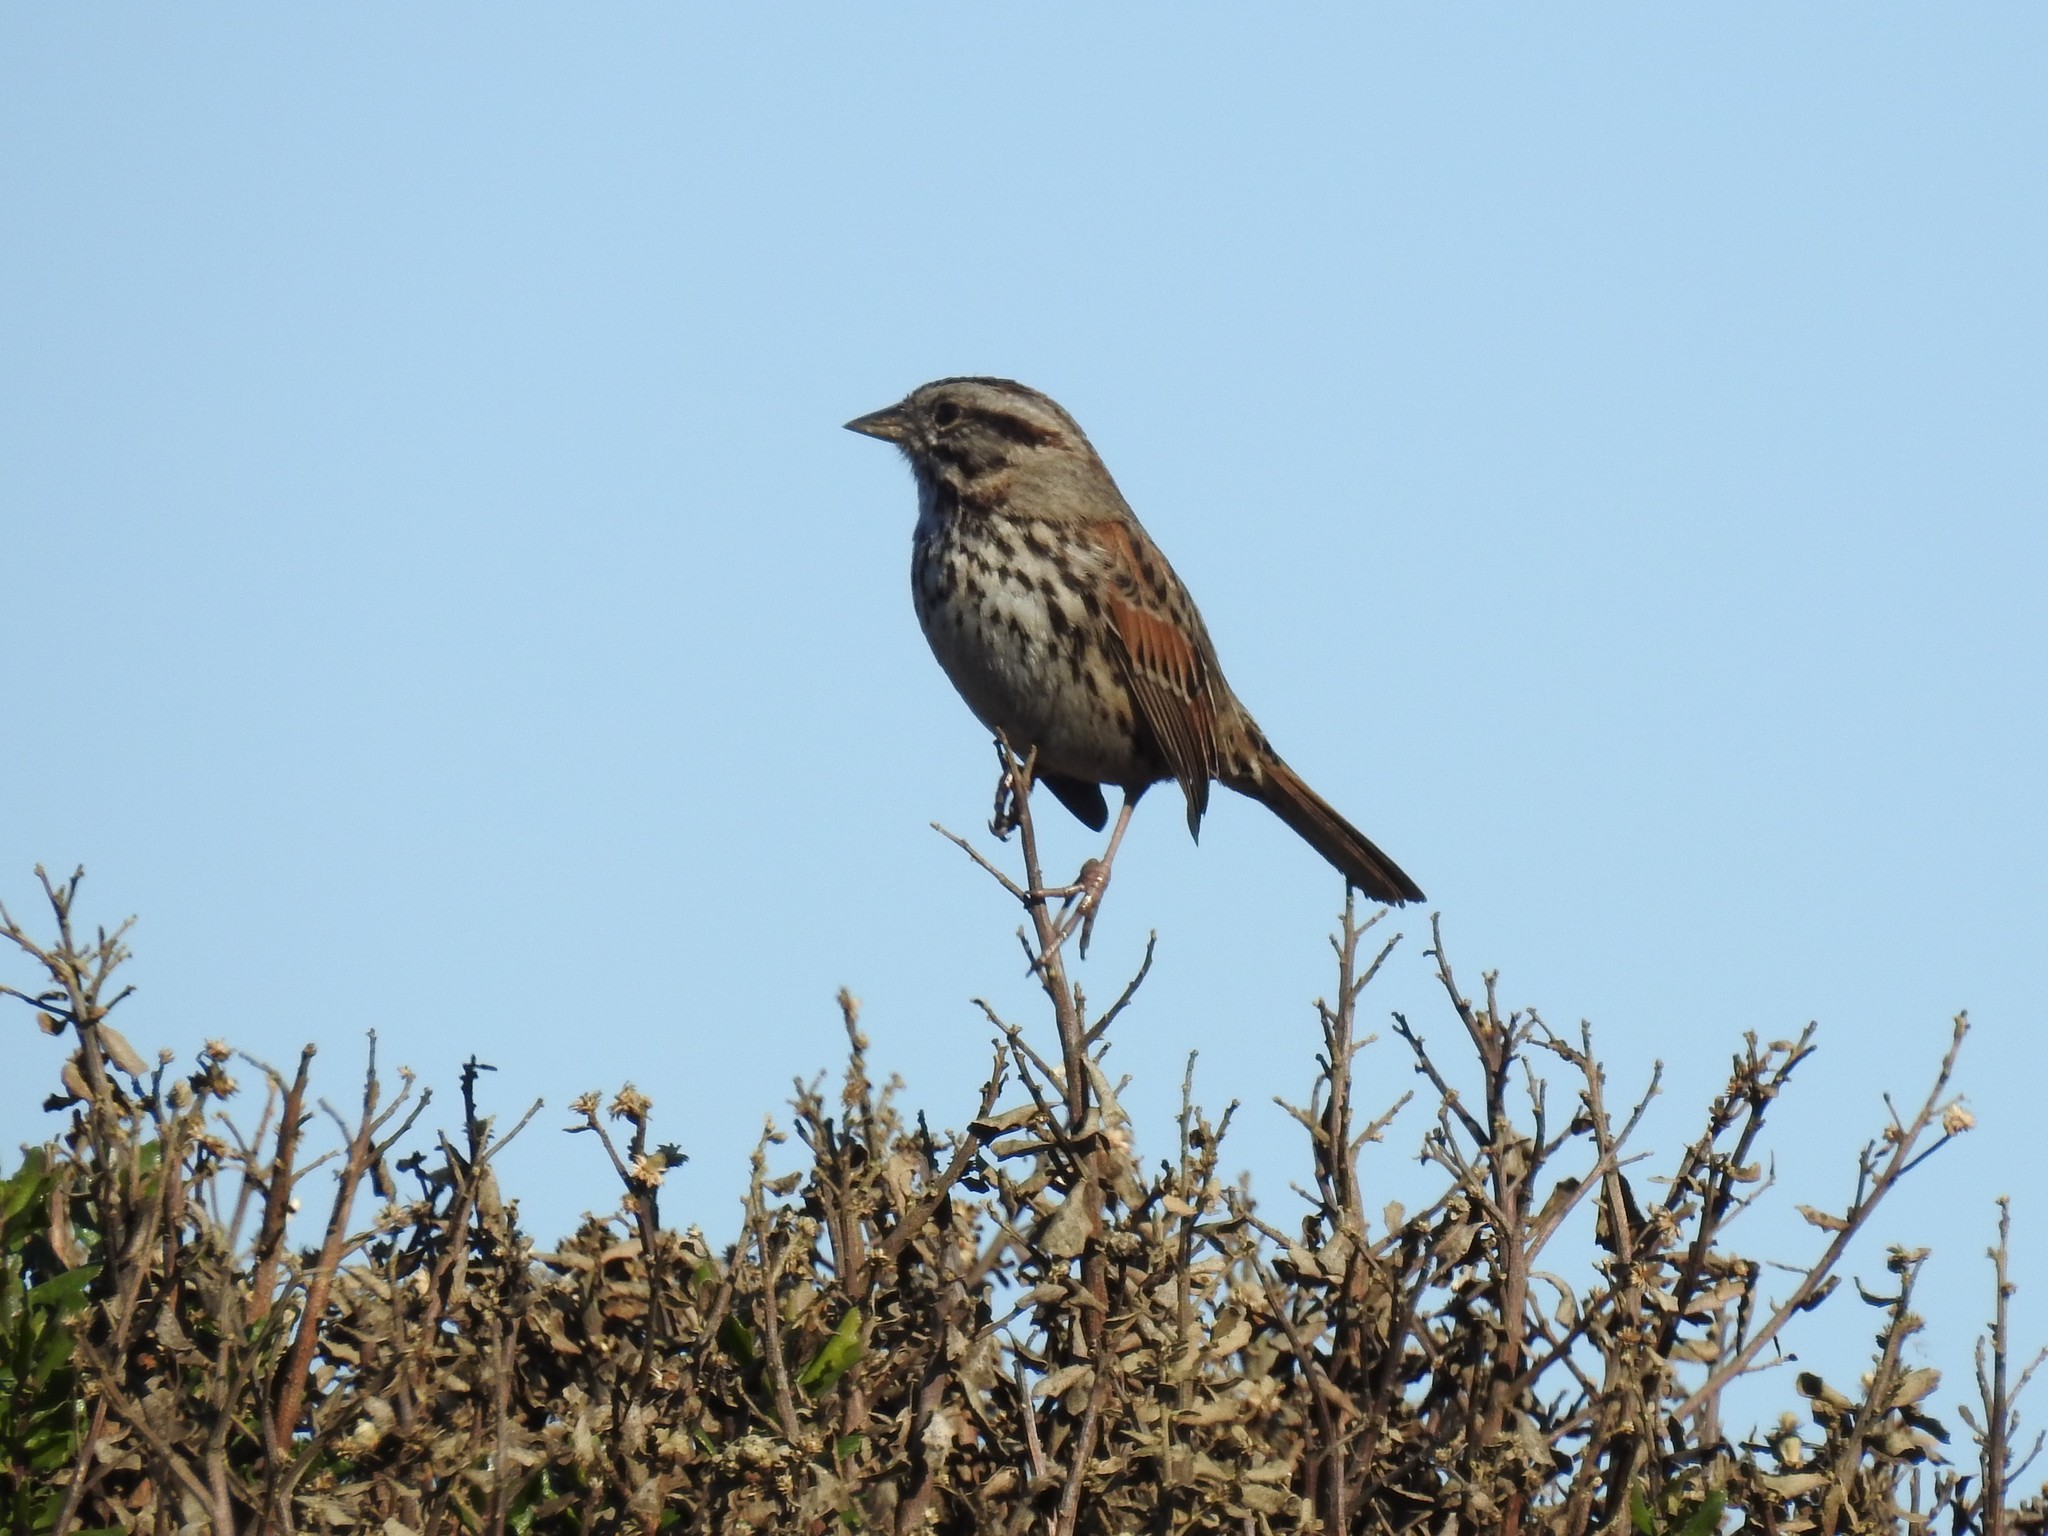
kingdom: Animalia
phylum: Chordata
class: Aves
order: Passeriformes
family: Passerellidae
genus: Melospiza
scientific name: Melospiza melodia
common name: Song sparrow
